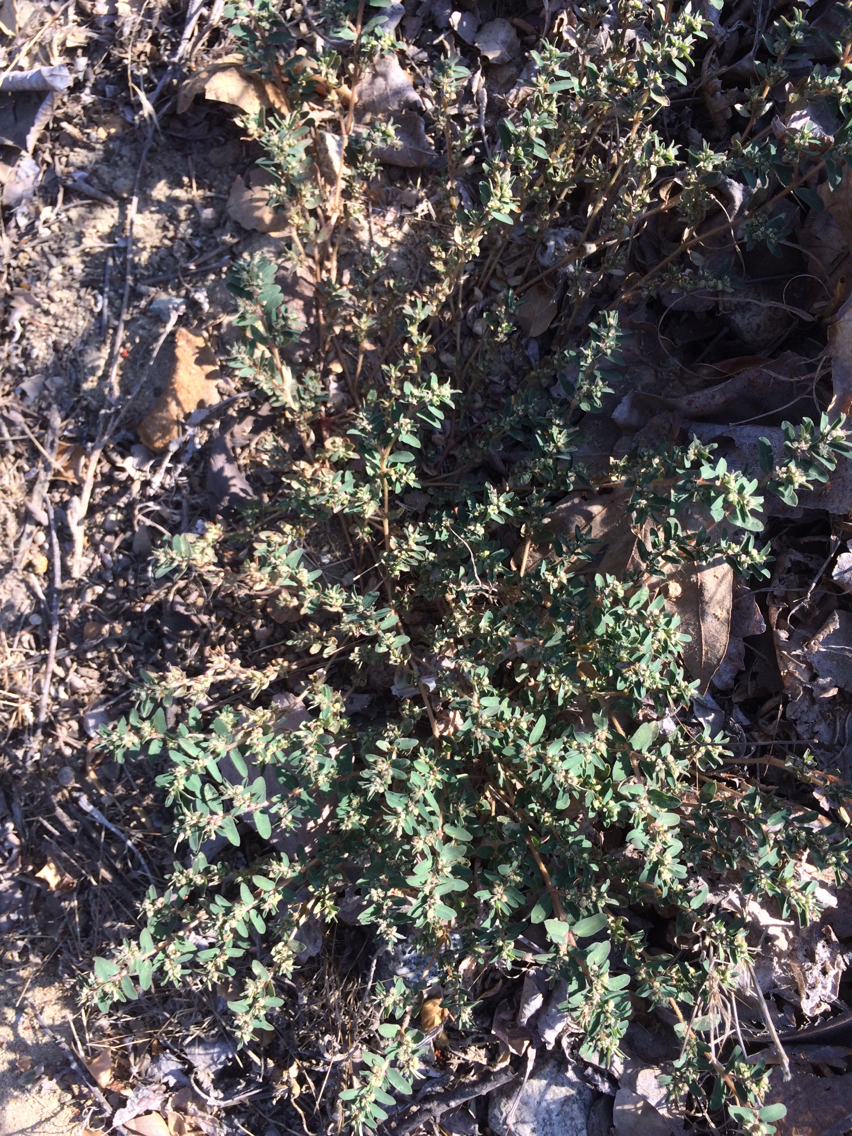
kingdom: Plantae
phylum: Tracheophyta
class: Magnoliopsida
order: Malpighiales
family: Euphorbiaceae
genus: Euphorbia
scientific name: Euphorbia maculata
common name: Spotted spurge
